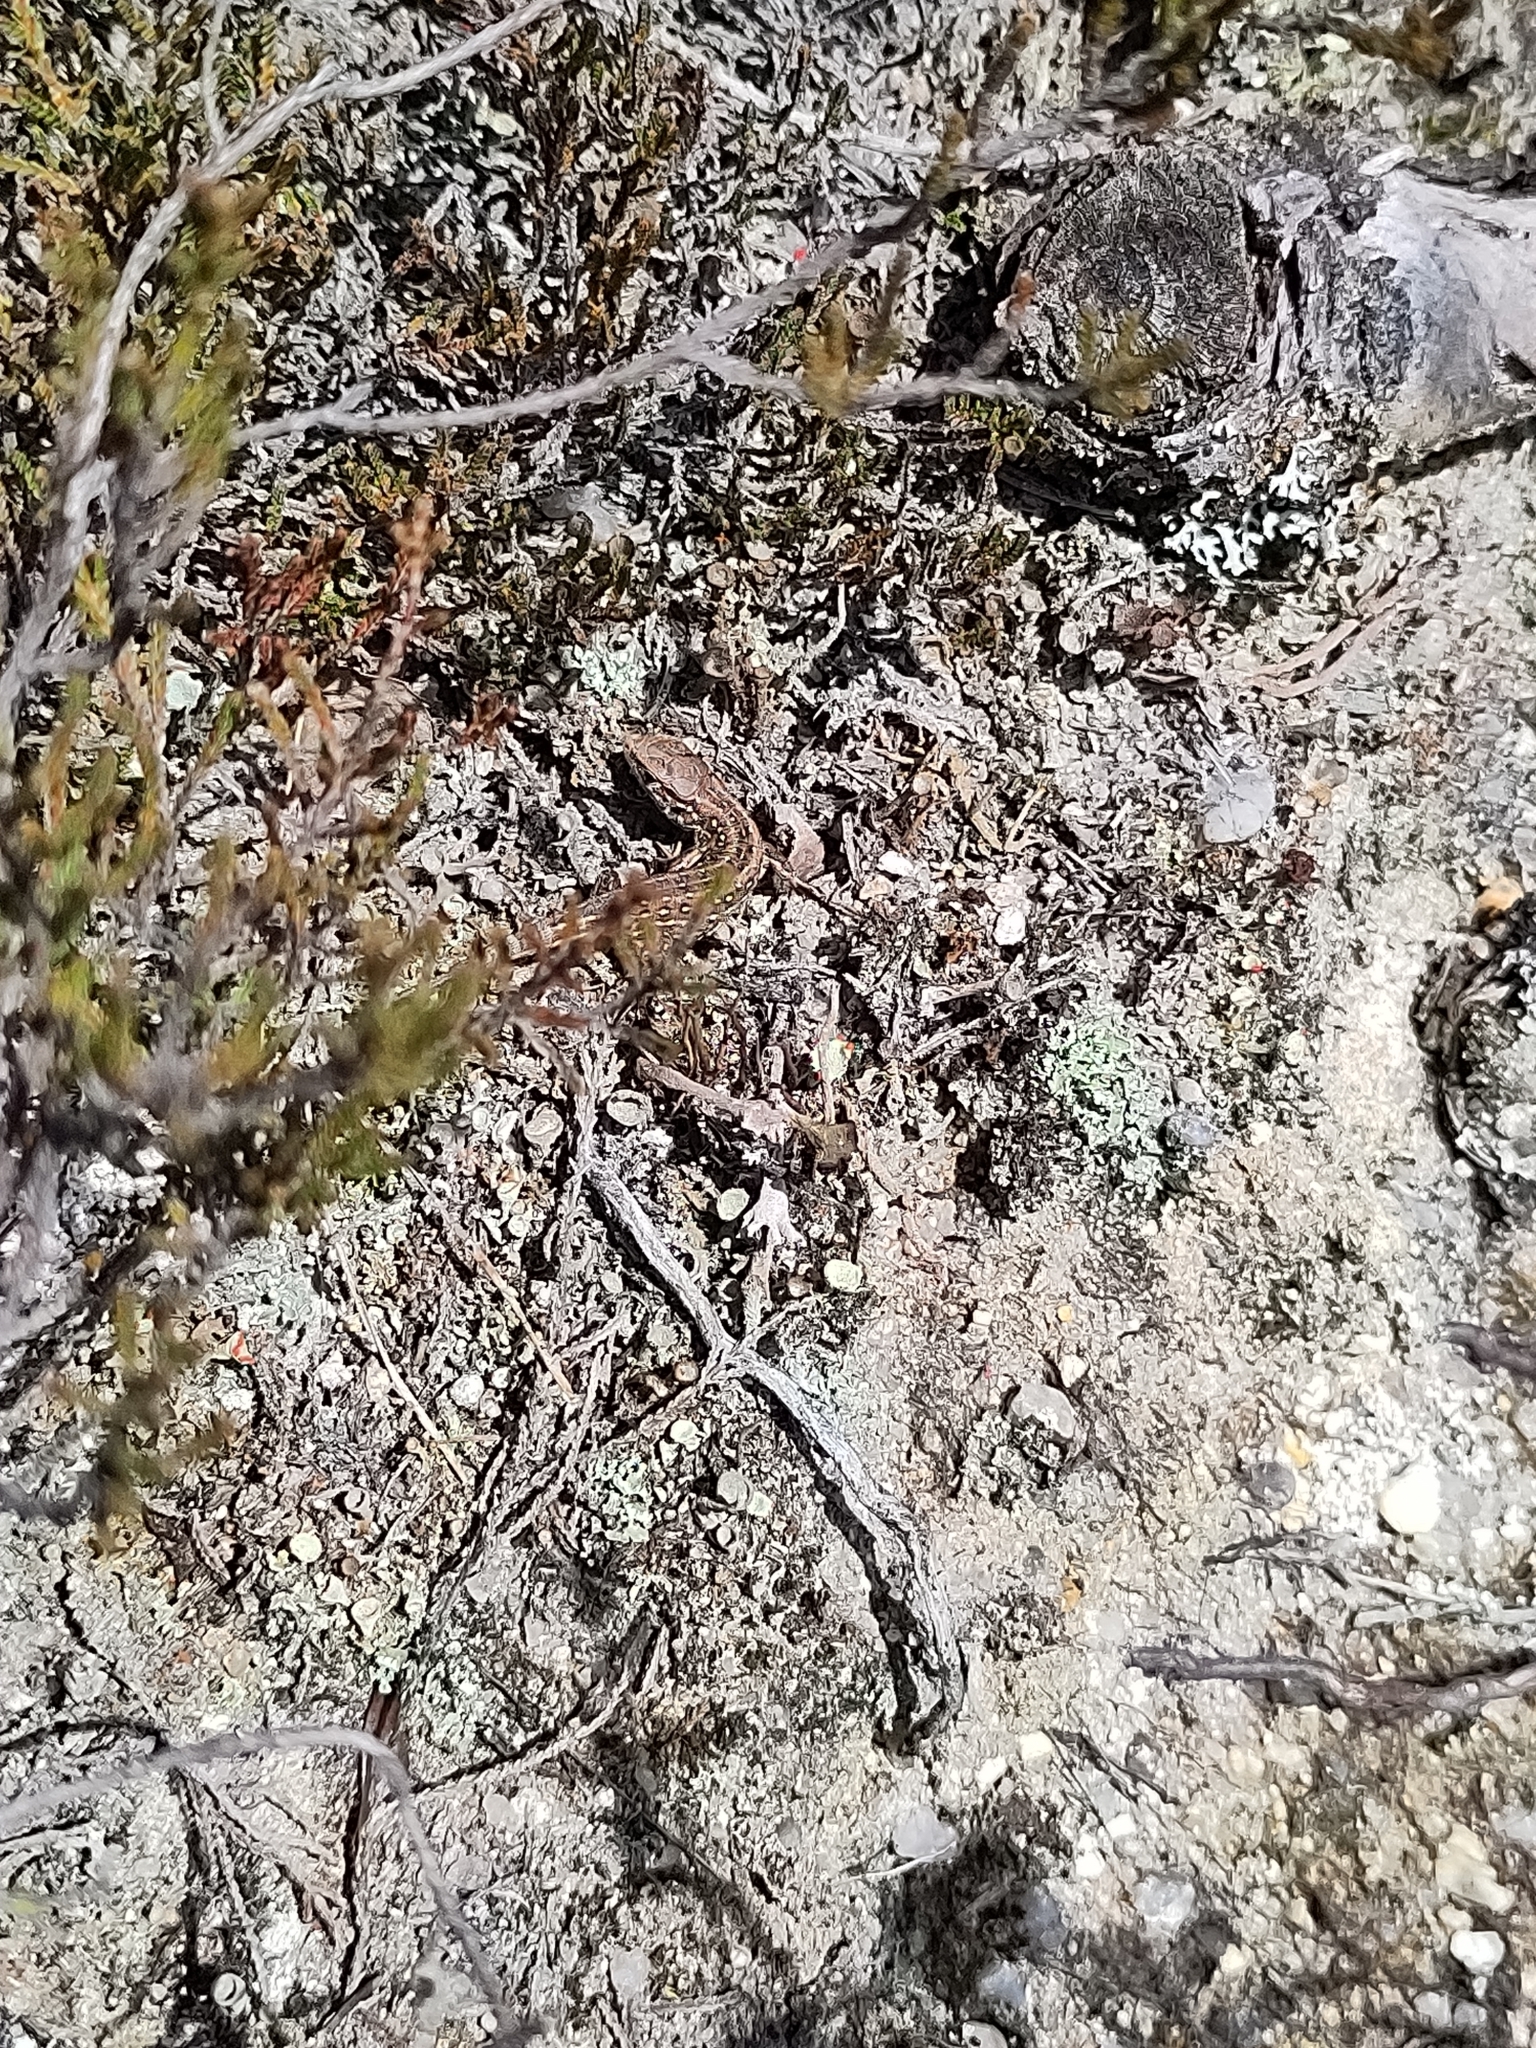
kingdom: Animalia
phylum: Chordata
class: Squamata
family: Lacertidae
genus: Lacerta
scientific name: Lacerta agilis
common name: Sand lizard
